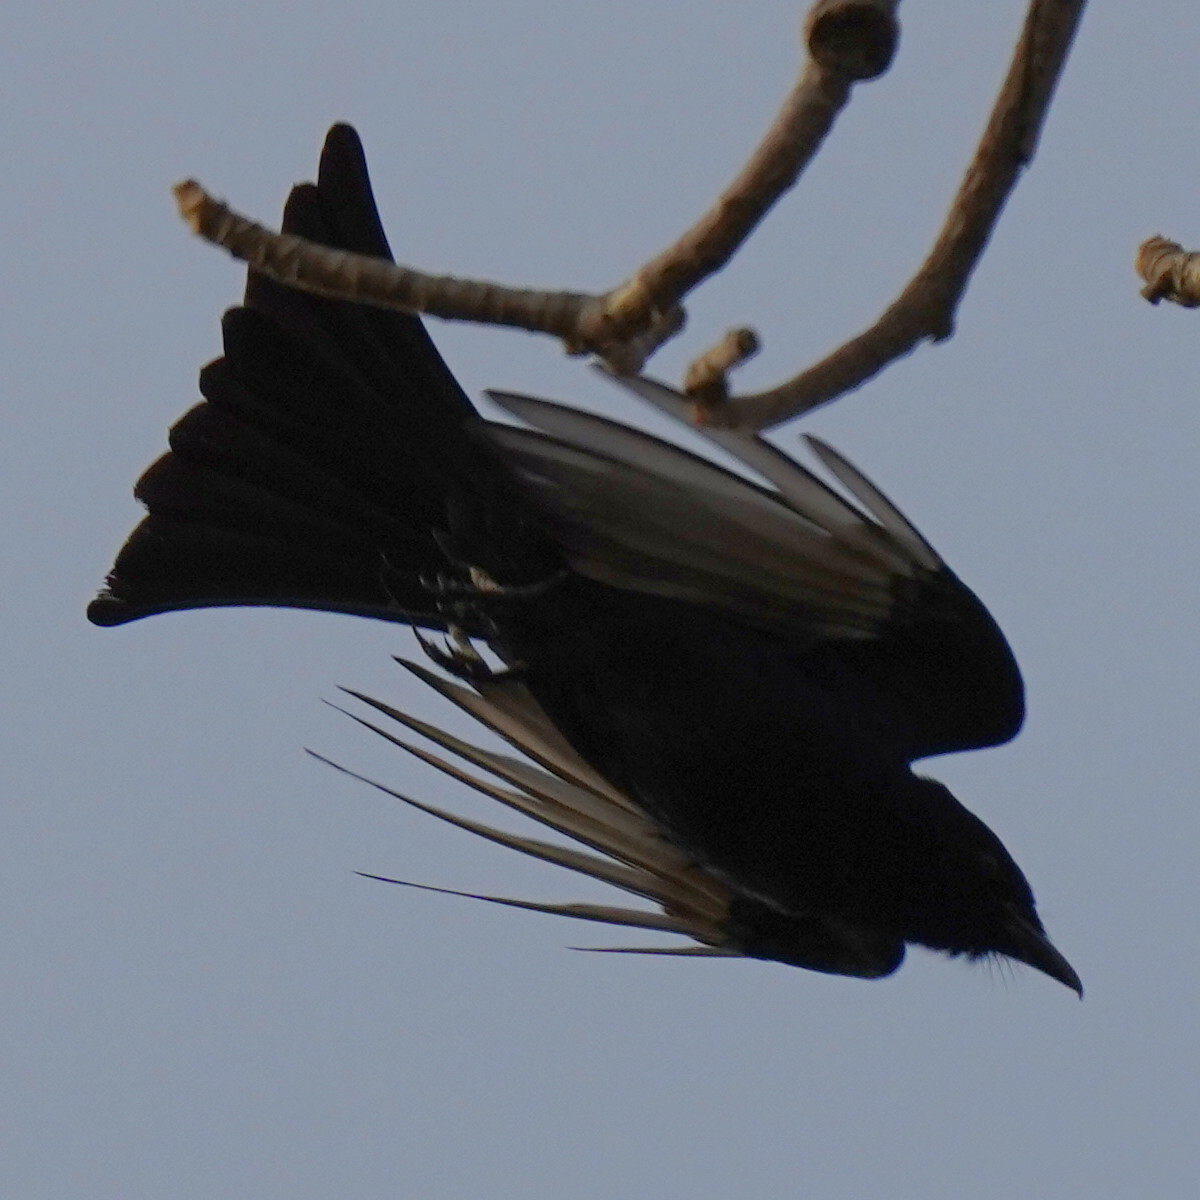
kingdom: Animalia
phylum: Chordata
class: Aves
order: Passeriformes
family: Dicruridae
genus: Dicrurus
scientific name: Dicrurus adsimilis
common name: Fork-tailed drongo
